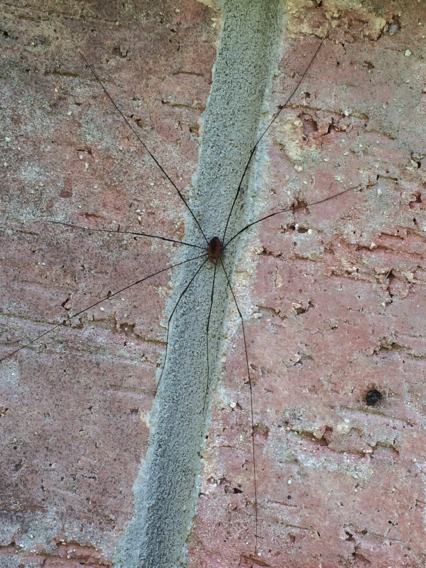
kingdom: Animalia
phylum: Arthropoda
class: Arachnida
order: Opiliones
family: Sclerosomatidae
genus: Leiobunum
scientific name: Leiobunum vittatum
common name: Eastern harvestman
